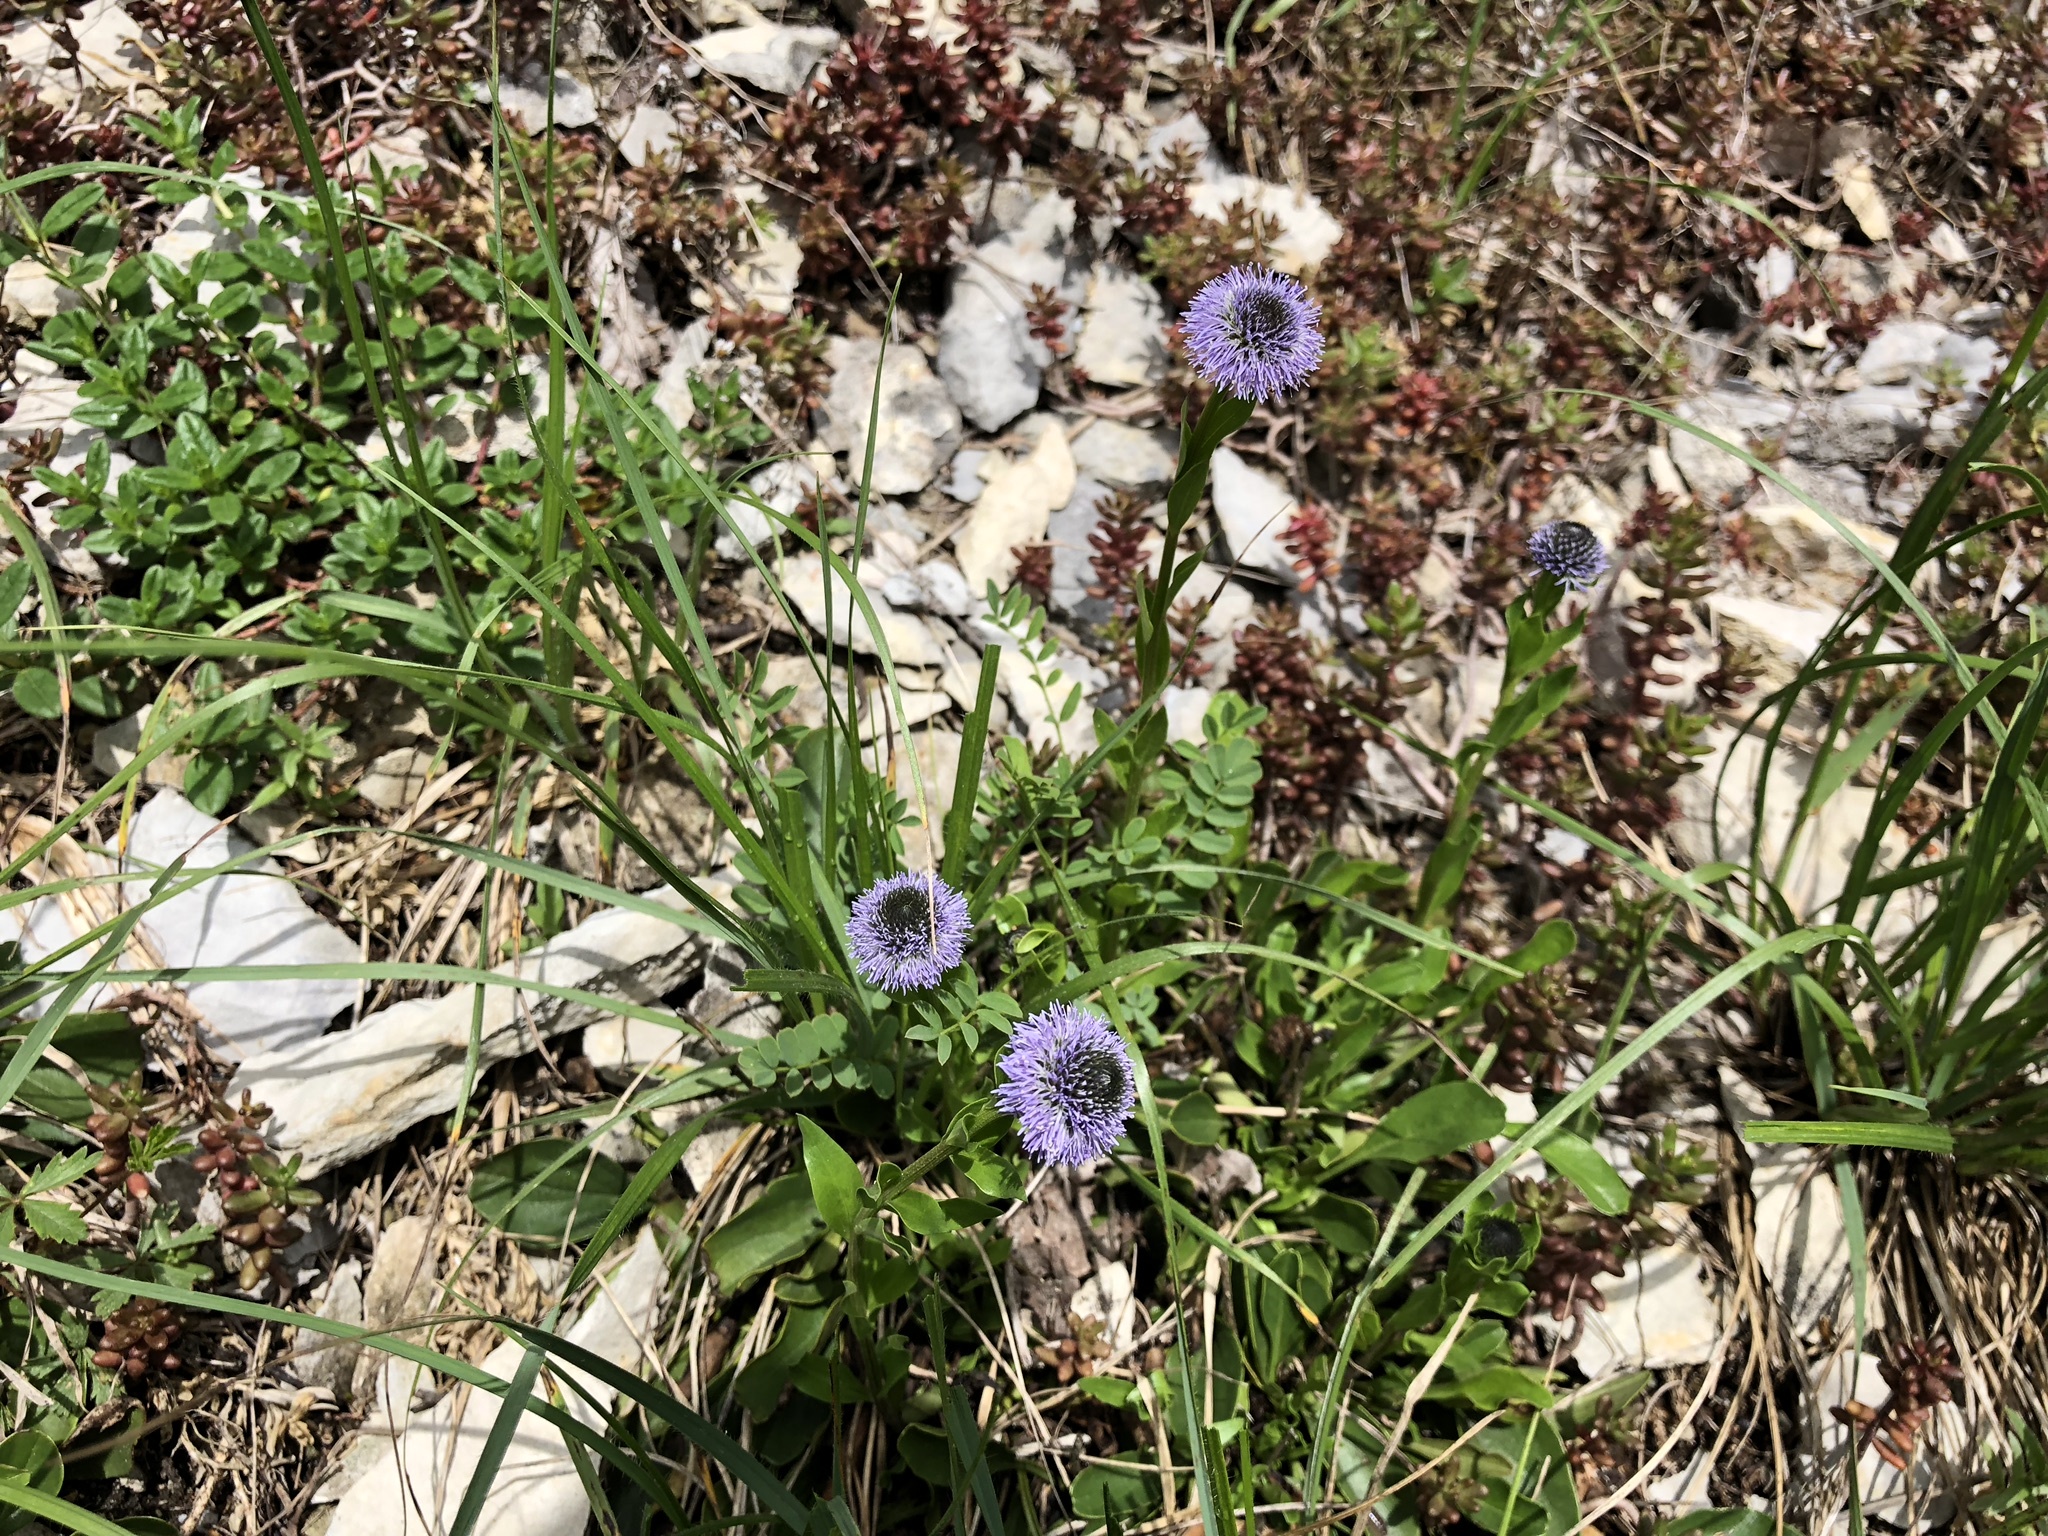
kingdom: Plantae
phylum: Tracheophyta
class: Magnoliopsida
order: Lamiales
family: Plantaginaceae
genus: Globularia
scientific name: Globularia bisnagarica
